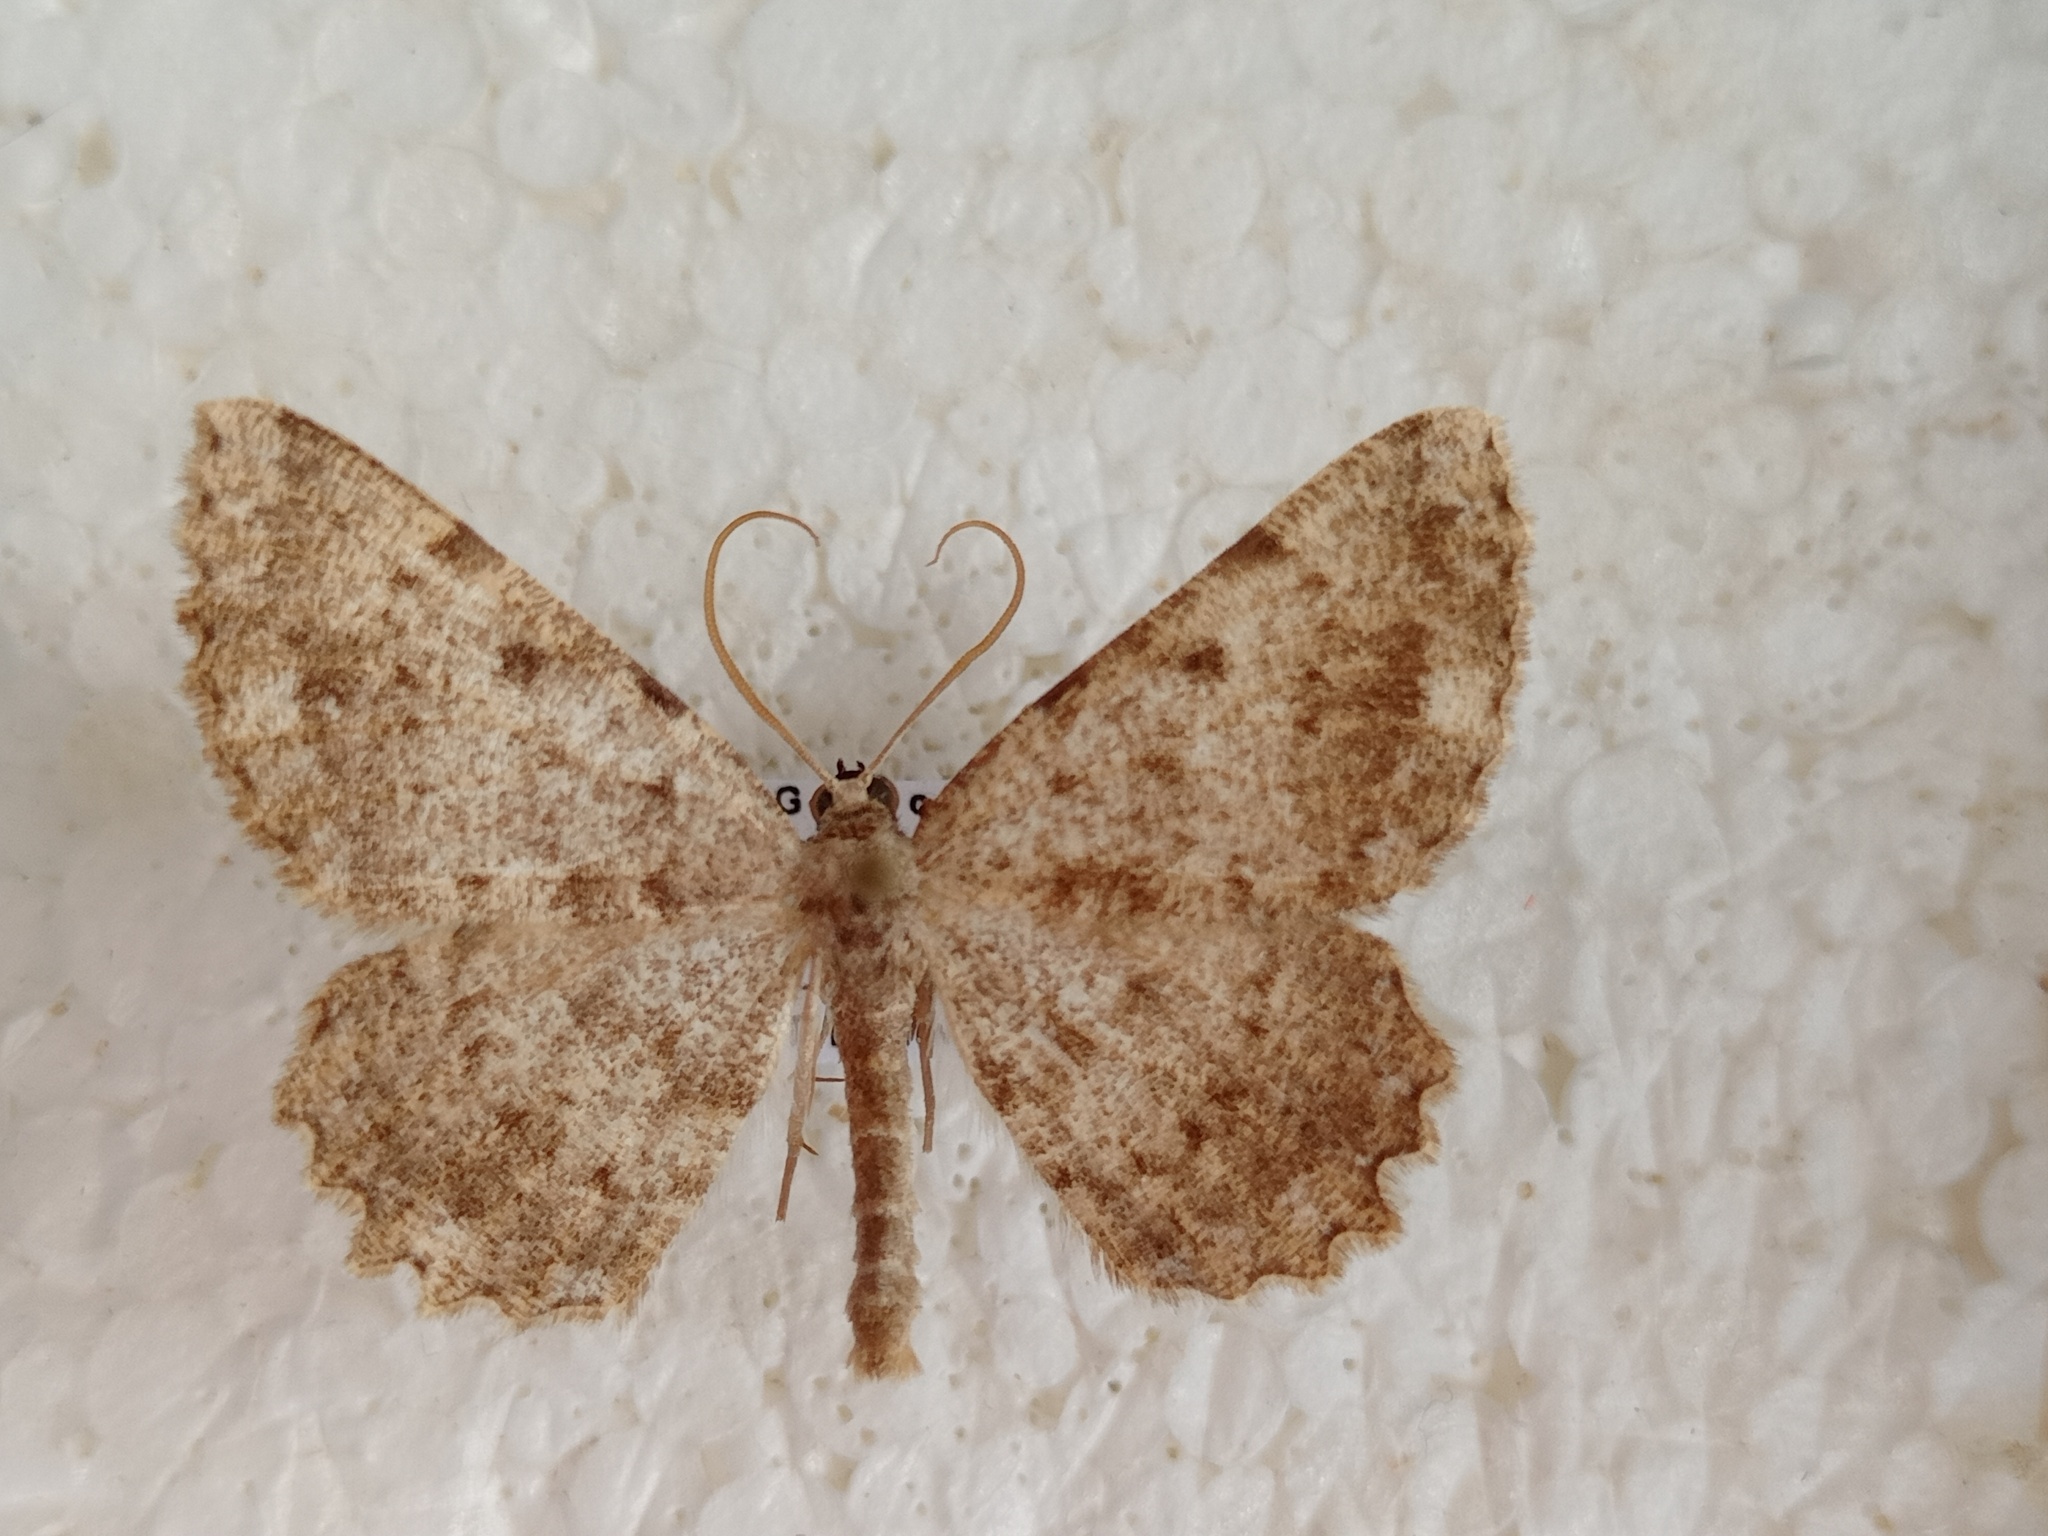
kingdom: Animalia
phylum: Arthropoda
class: Insecta
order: Lepidoptera
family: Geometridae
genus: Gnophos
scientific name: Gnophos sartata
